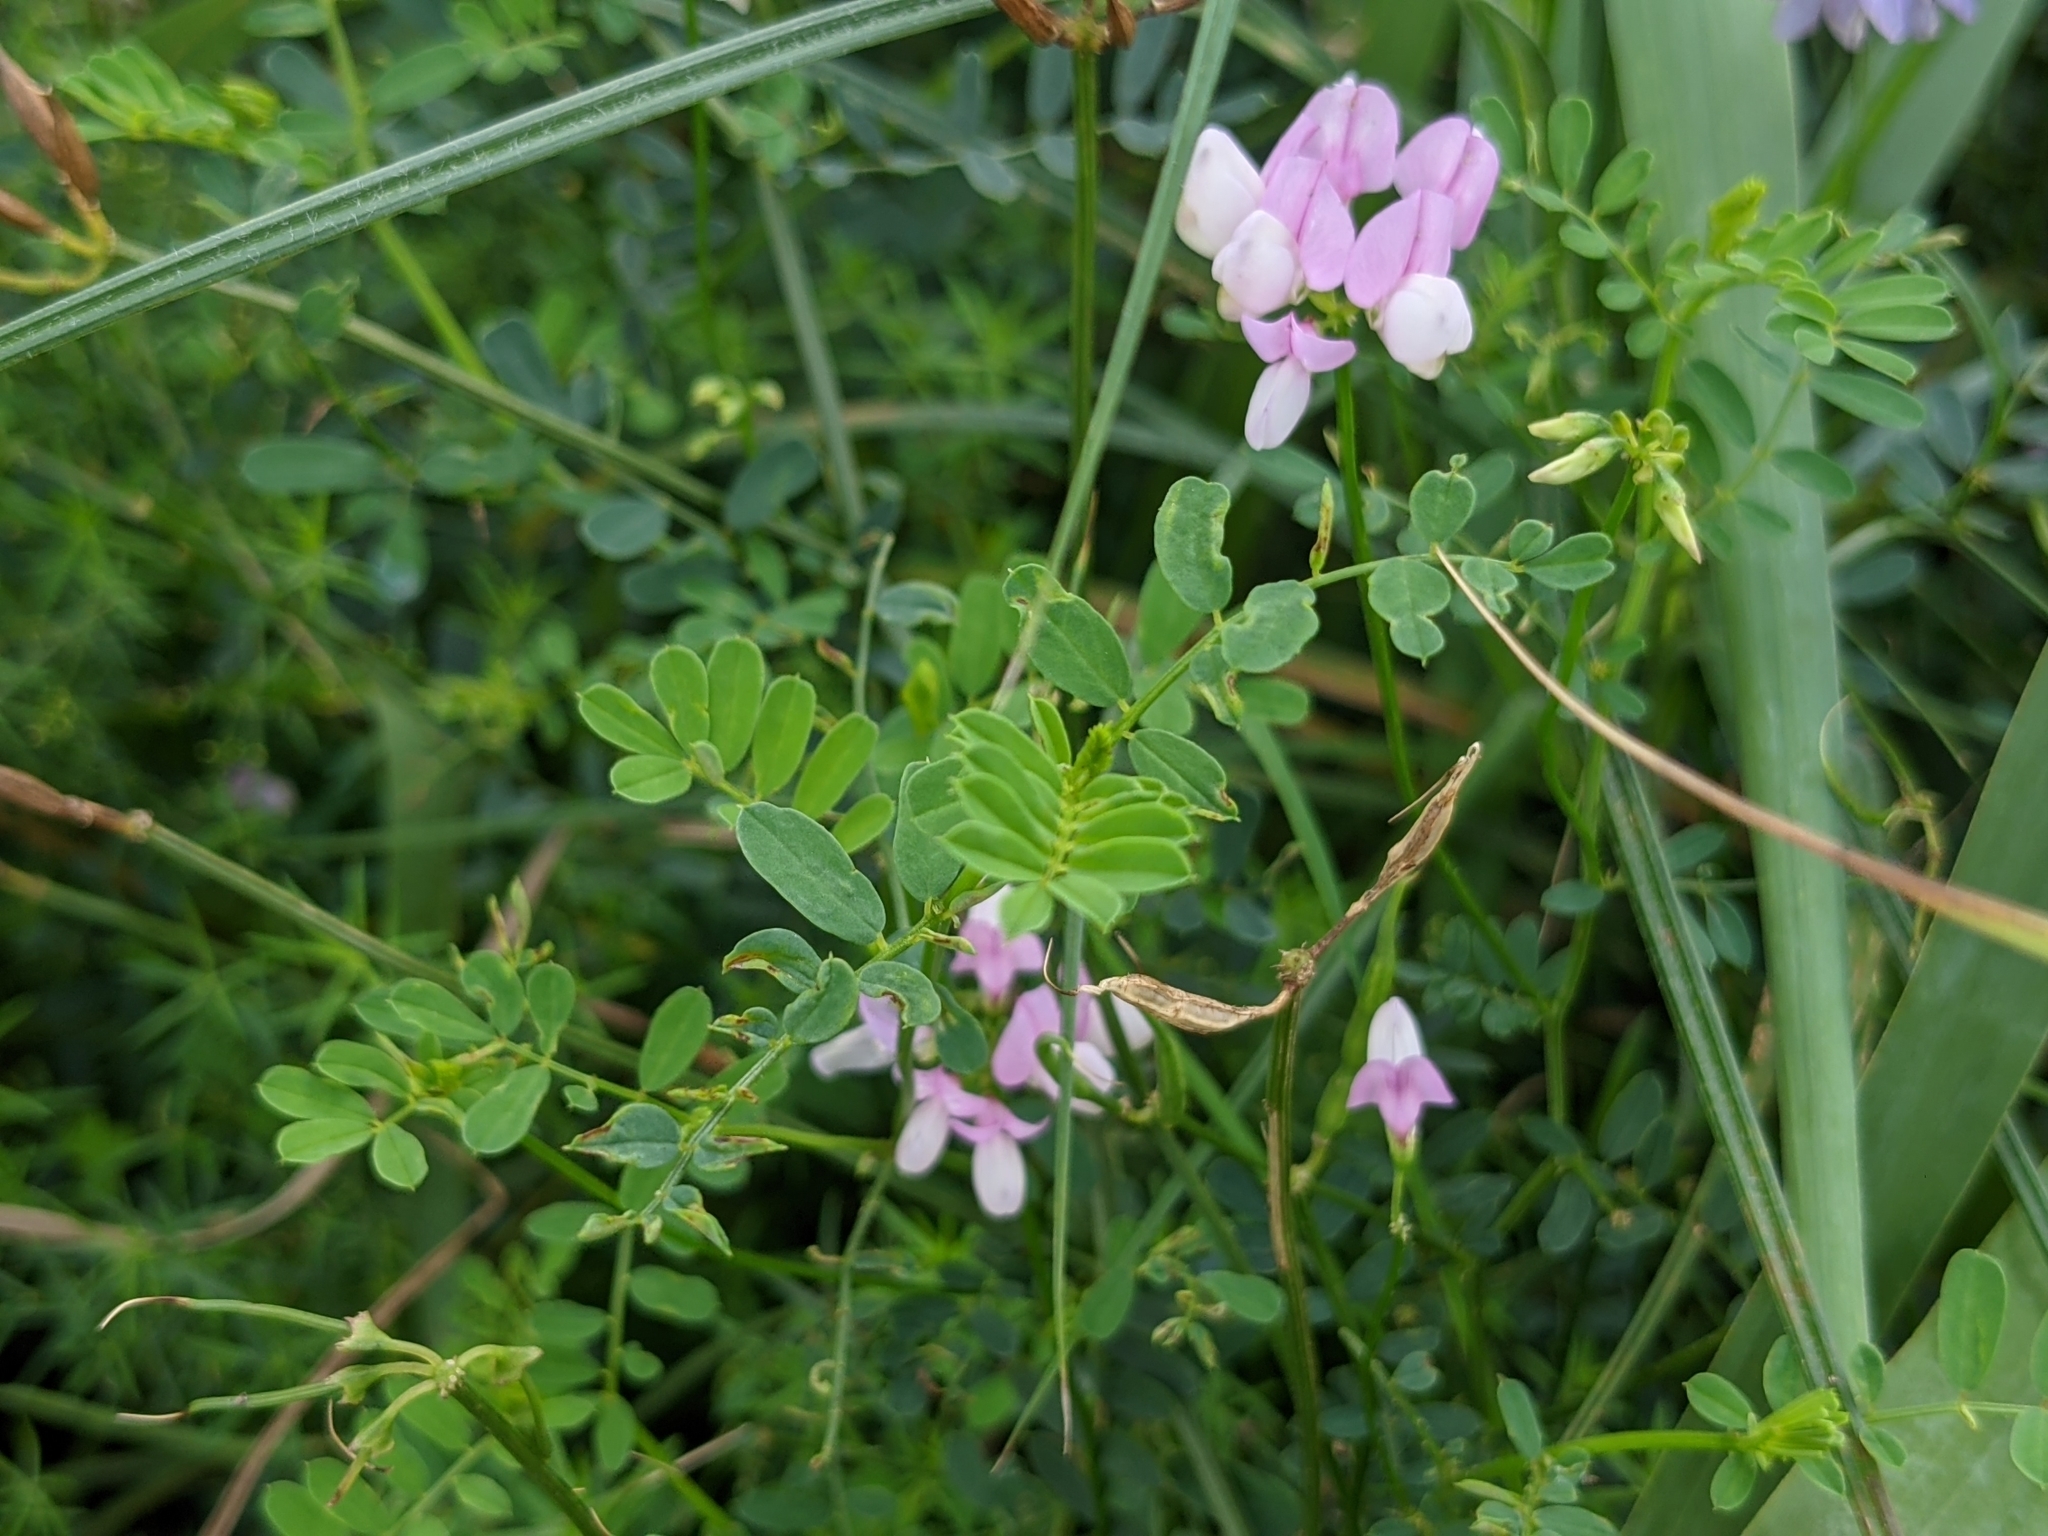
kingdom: Plantae
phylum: Tracheophyta
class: Magnoliopsida
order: Fabales
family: Fabaceae
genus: Coronilla
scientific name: Coronilla varia
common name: Crownvetch
